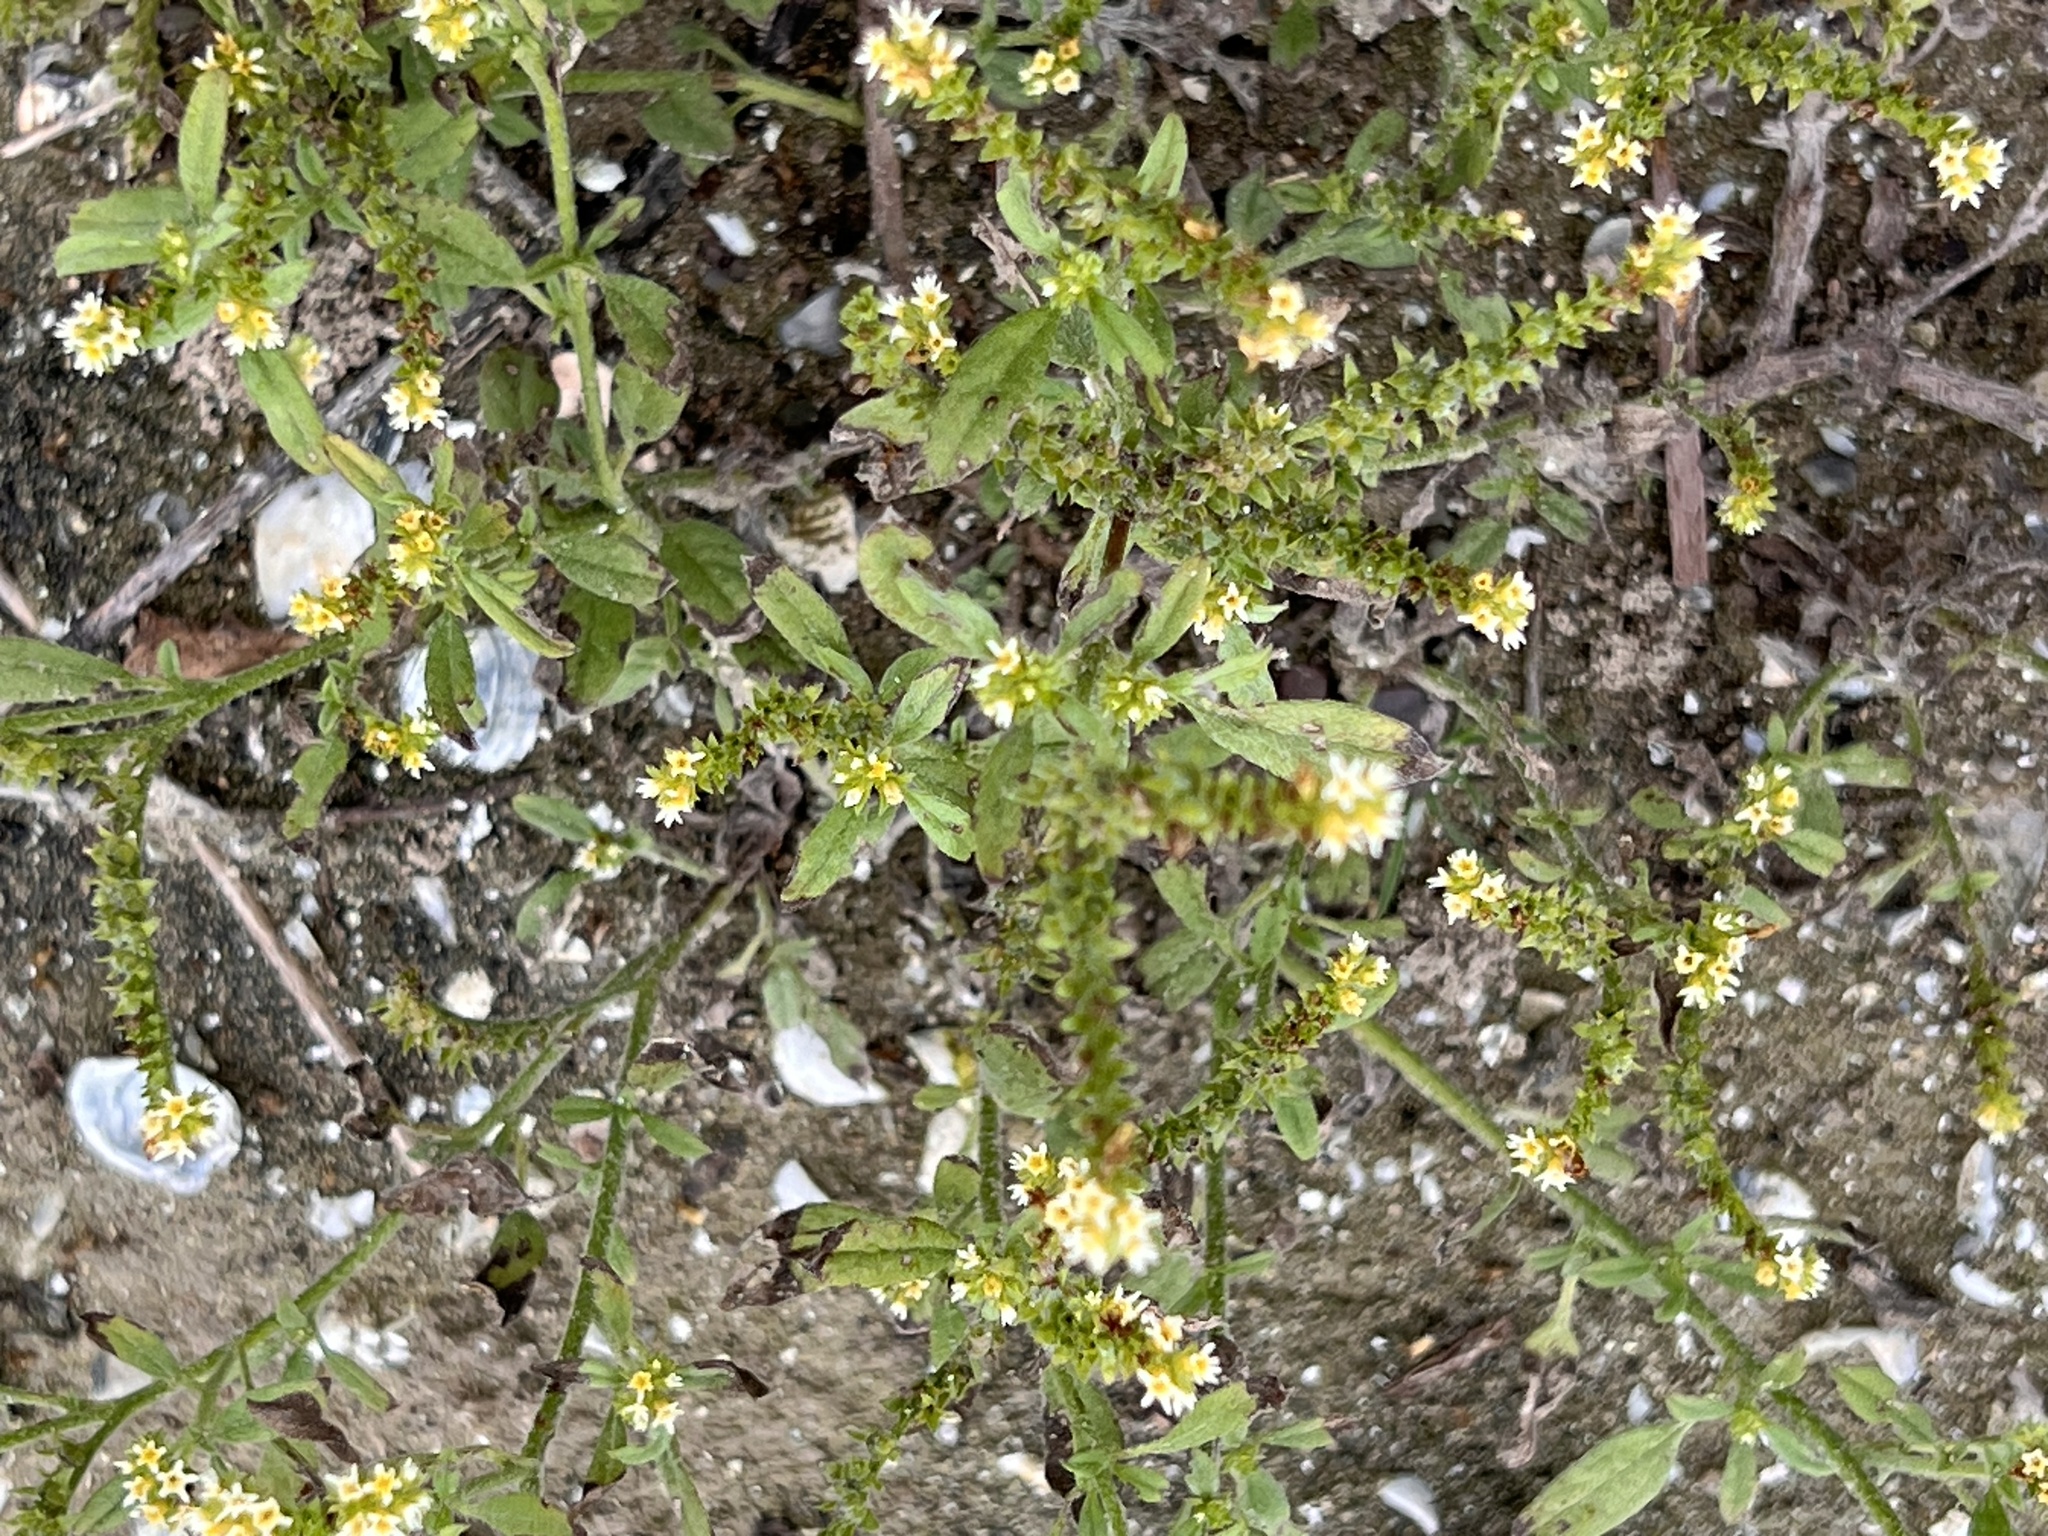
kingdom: Plantae
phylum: Tracheophyta
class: Magnoliopsida
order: Boraginales
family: Heliotropiaceae
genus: Euploca
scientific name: Euploca procumbens
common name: Fourspike heliotrope
